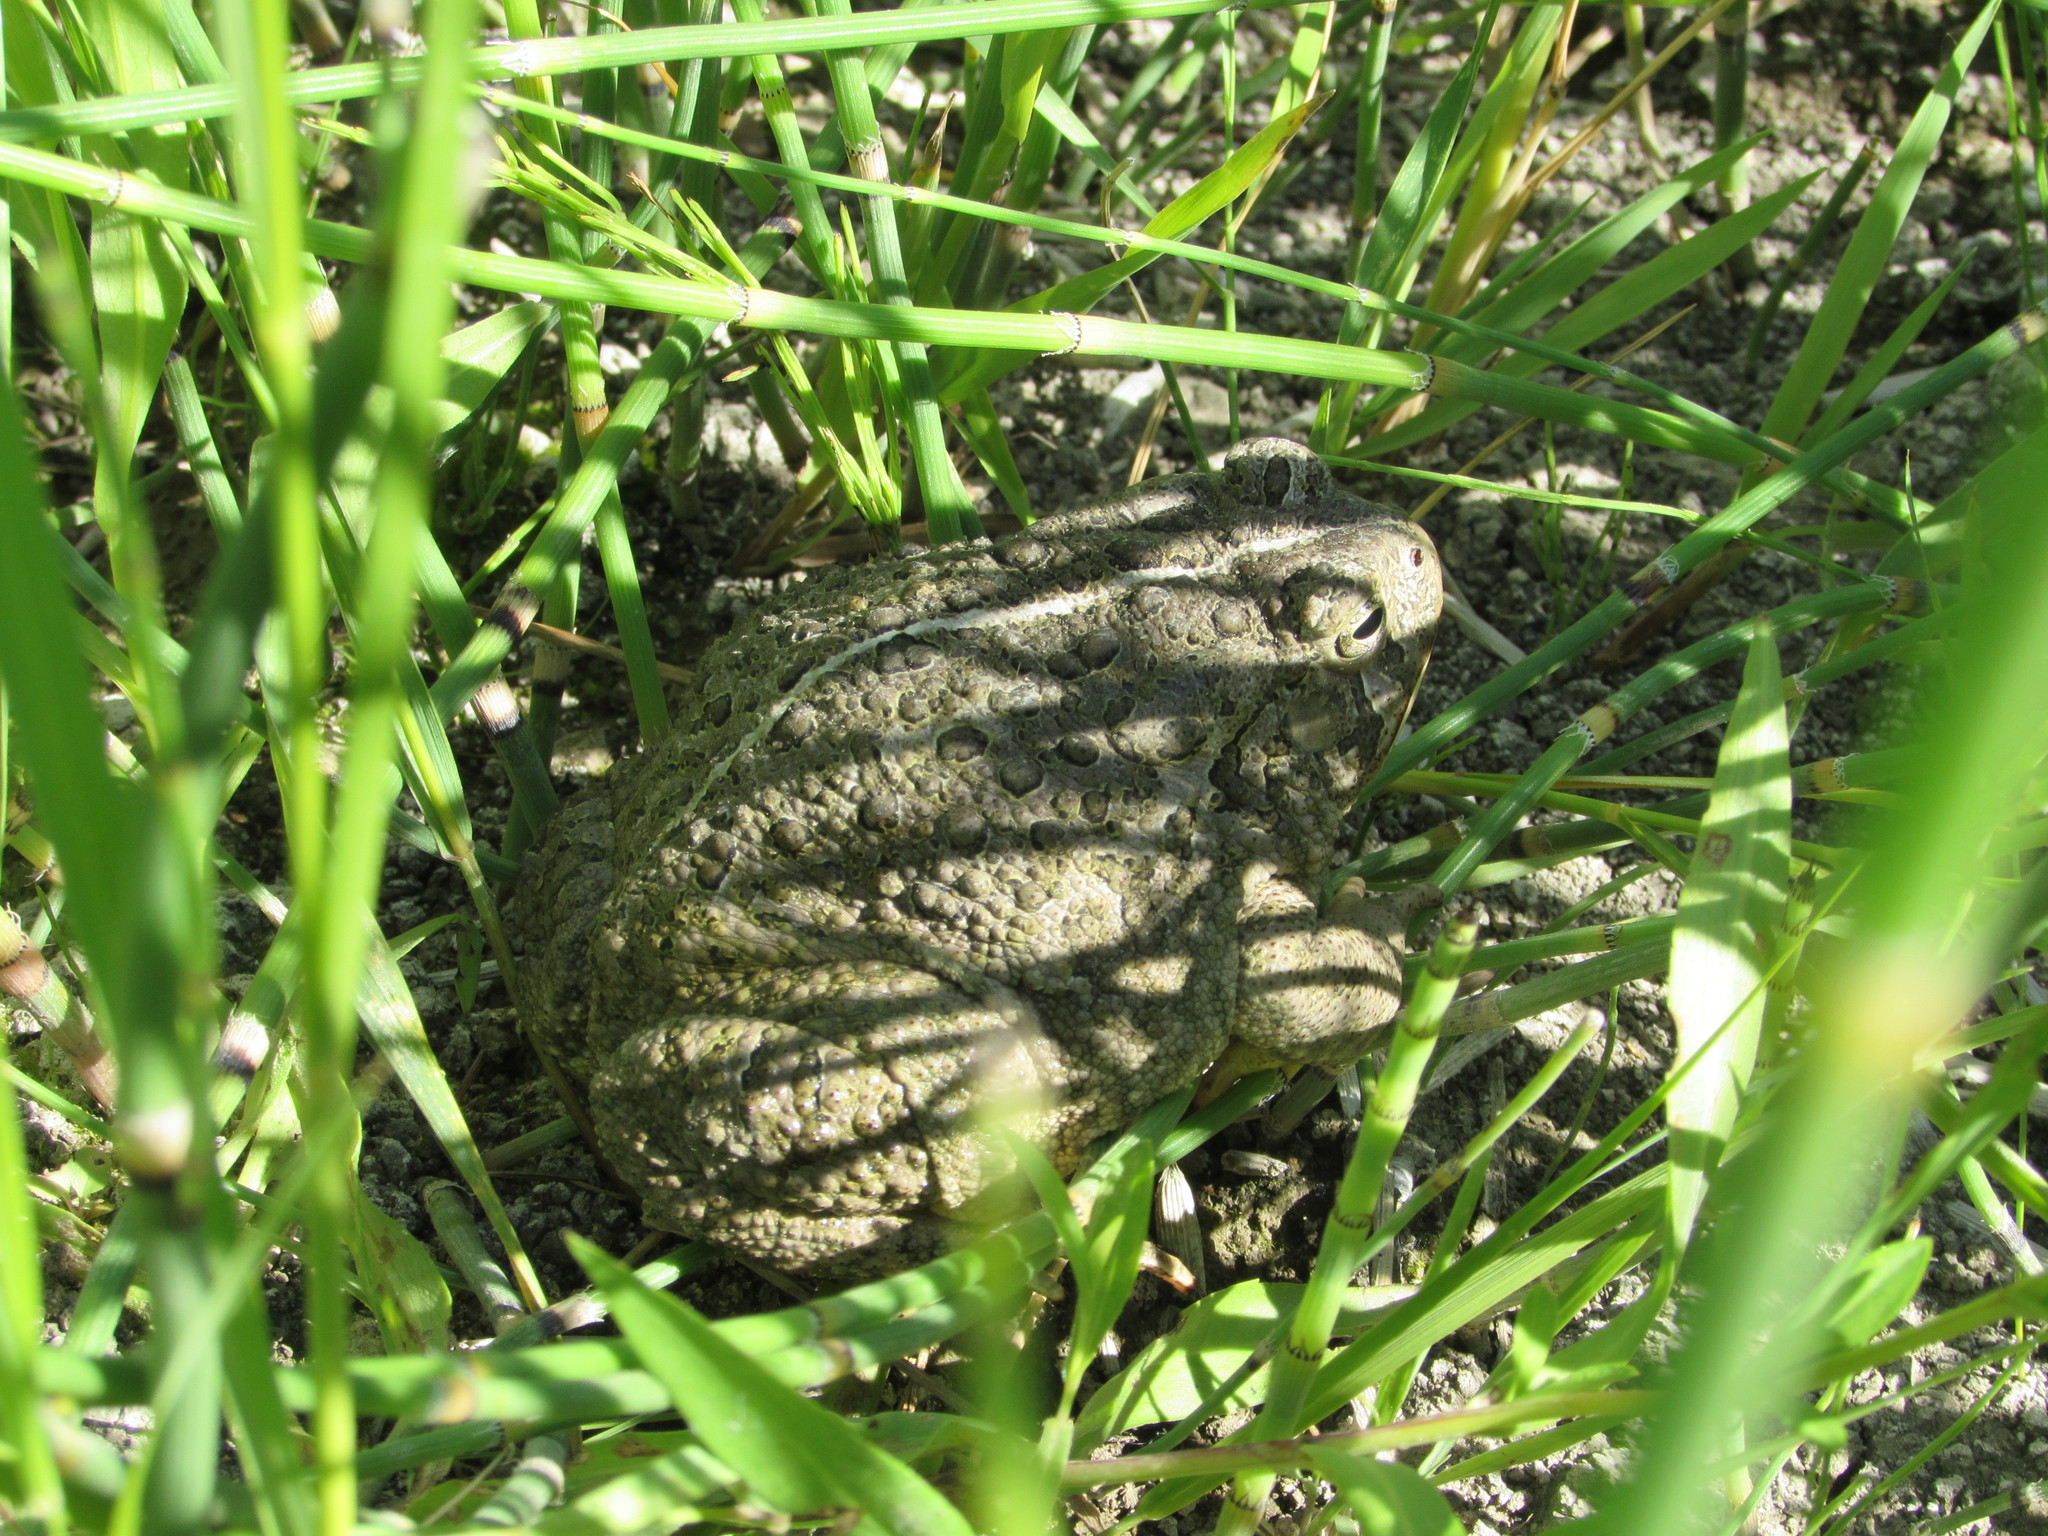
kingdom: Animalia
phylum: Chordata
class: Amphibia
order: Anura
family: Bufonidae
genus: Anaxyrus
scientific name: Anaxyrus woodhousii
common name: Woodhouse's toad
